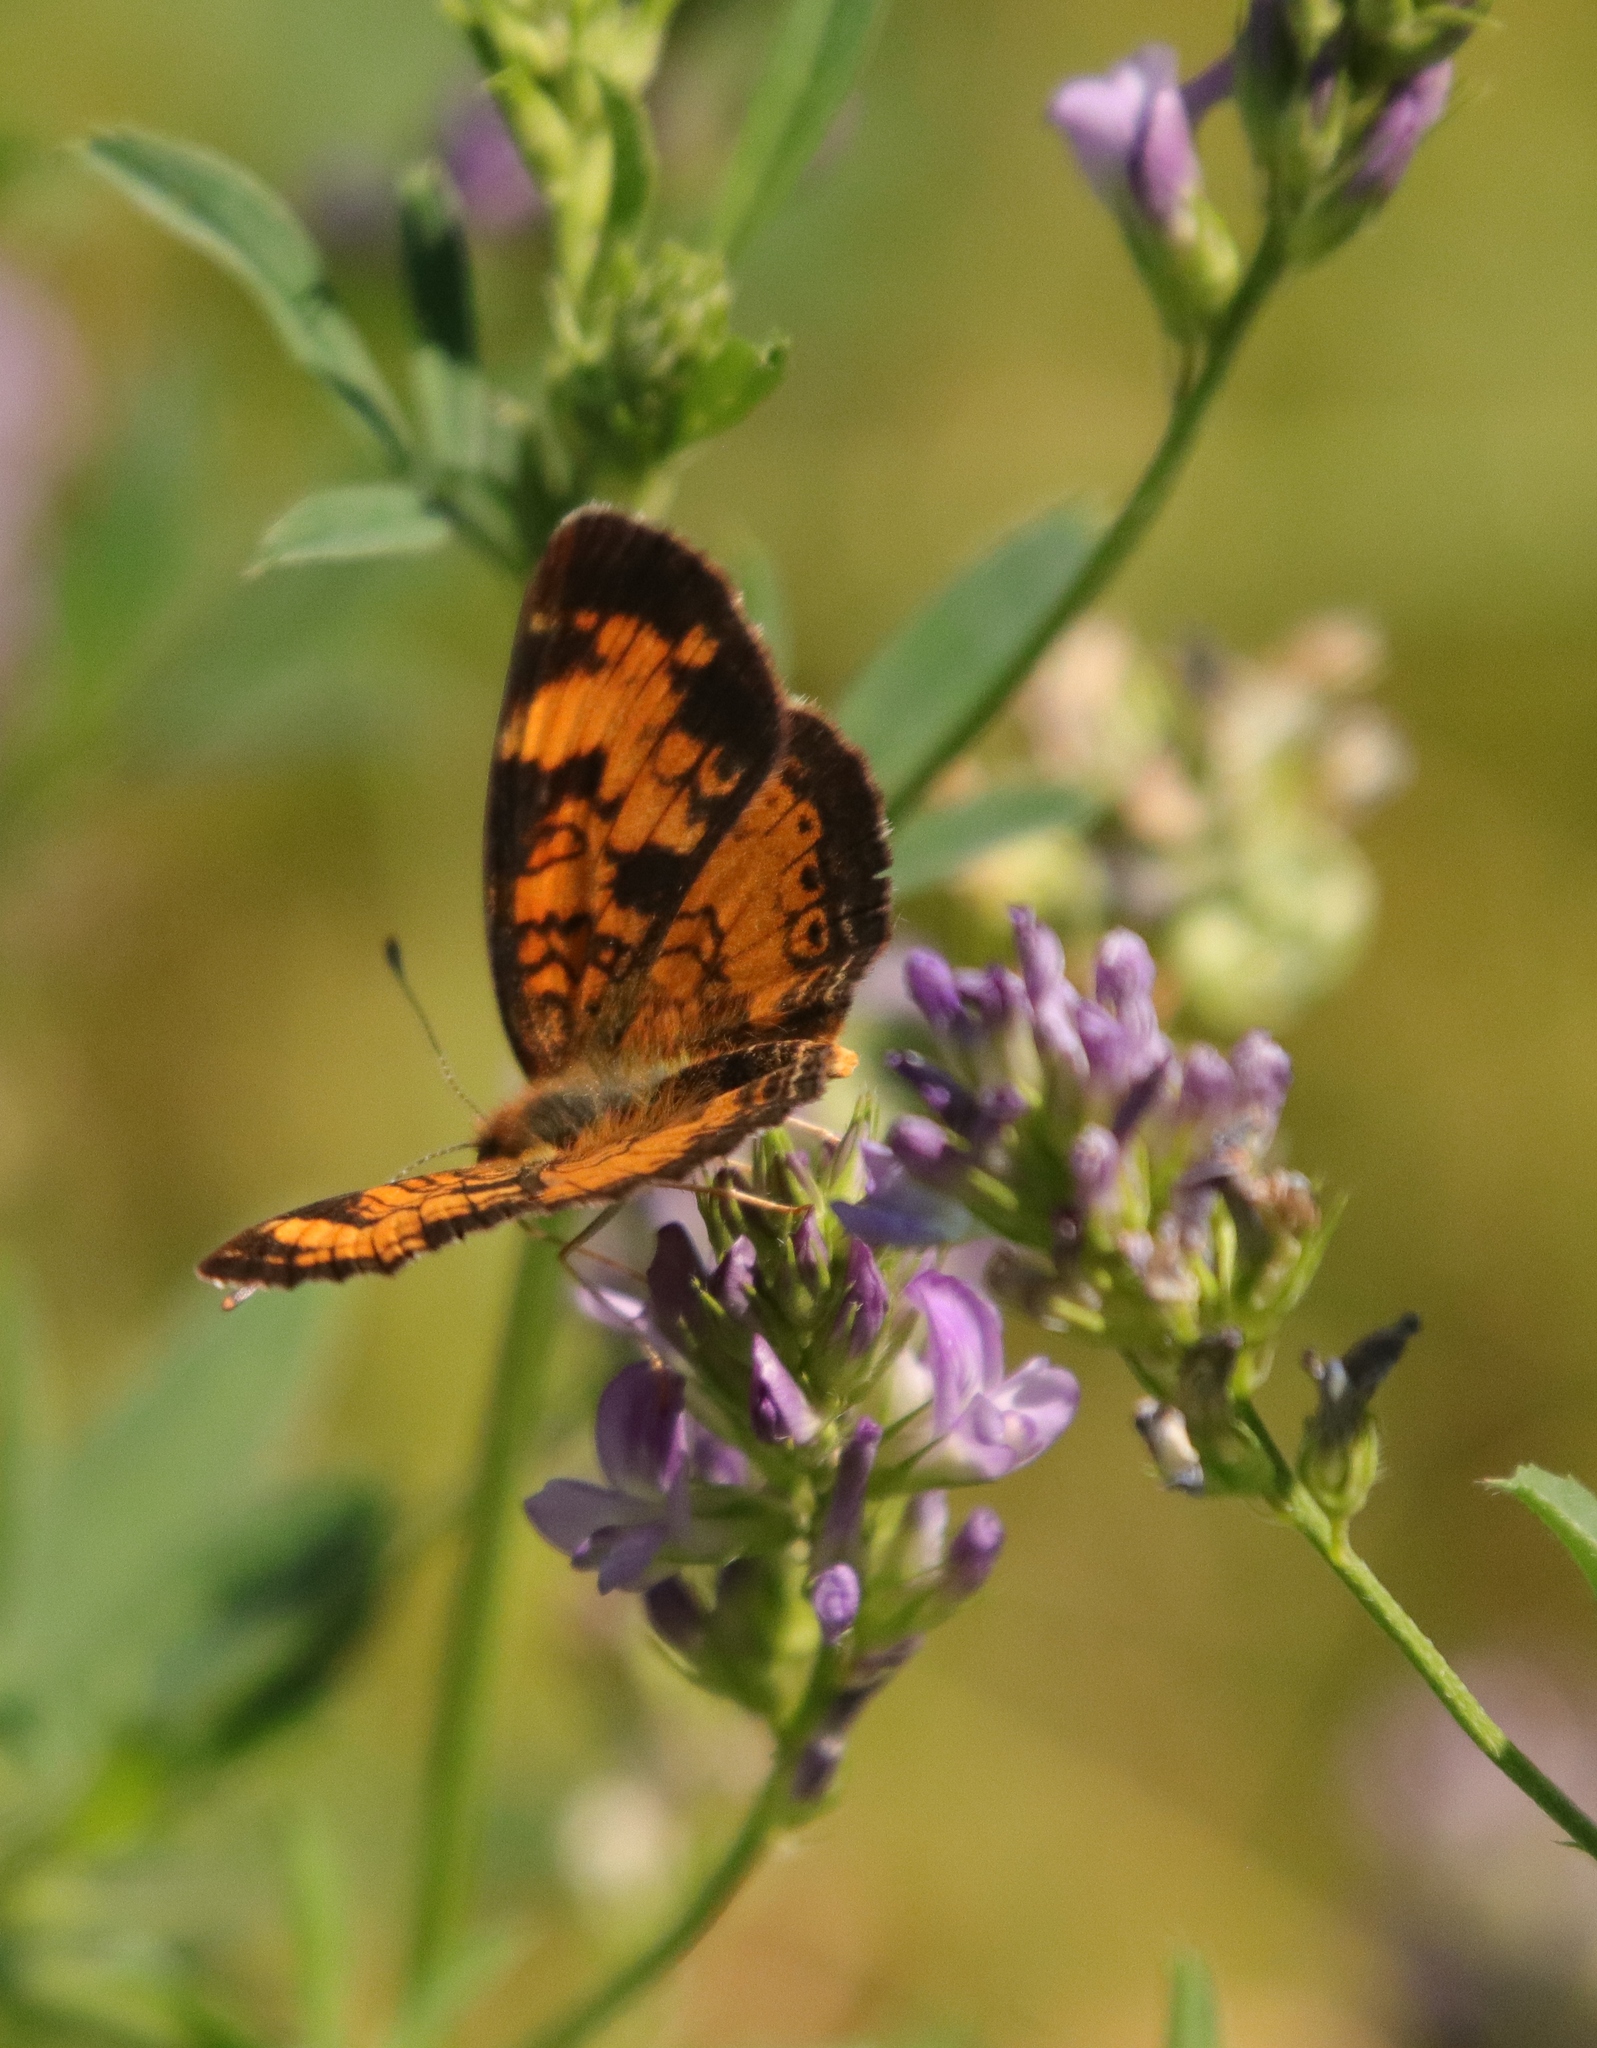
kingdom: Animalia
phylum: Arthropoda
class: Insecta
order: Lepidoptera
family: Nymphalidae
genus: Phyciodes
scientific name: Phyciodes tharos
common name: Pearl crescent
